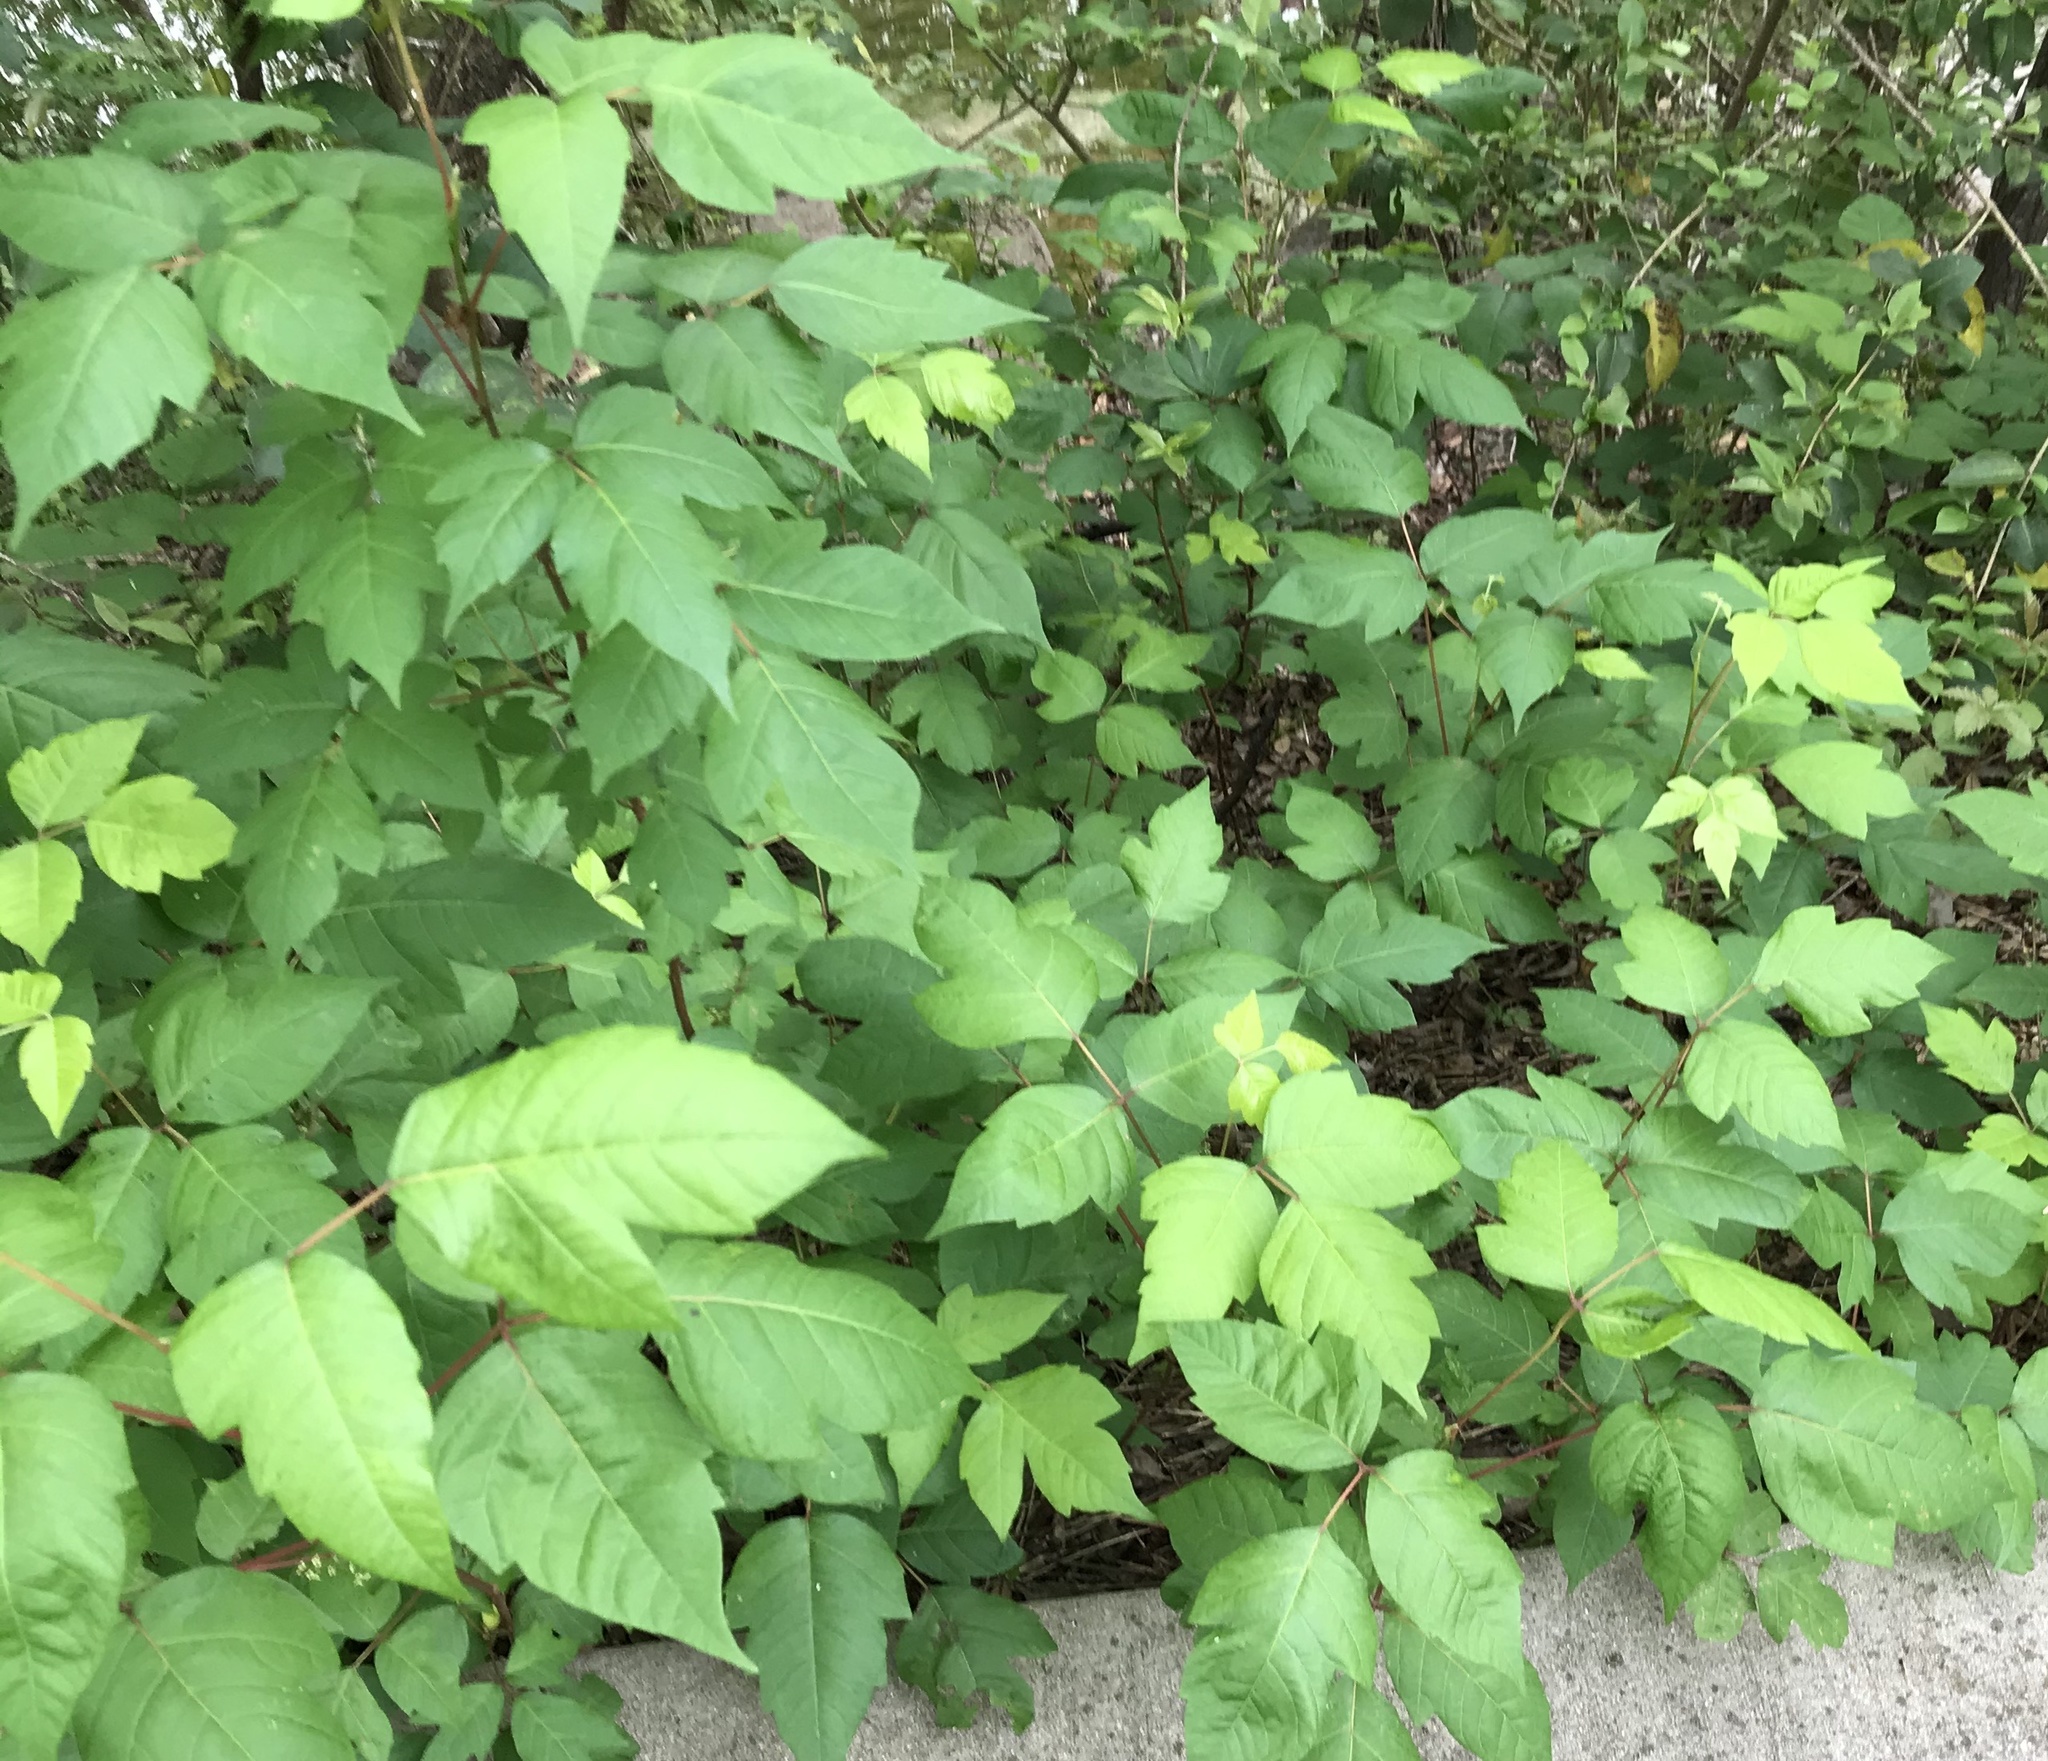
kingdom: Plantae
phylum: Tracheophyta
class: Magnoliopsida
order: Sapindales
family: Anacardiaceae
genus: Toxicodendron
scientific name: Toxicodendron radicans
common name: Poison ivy
